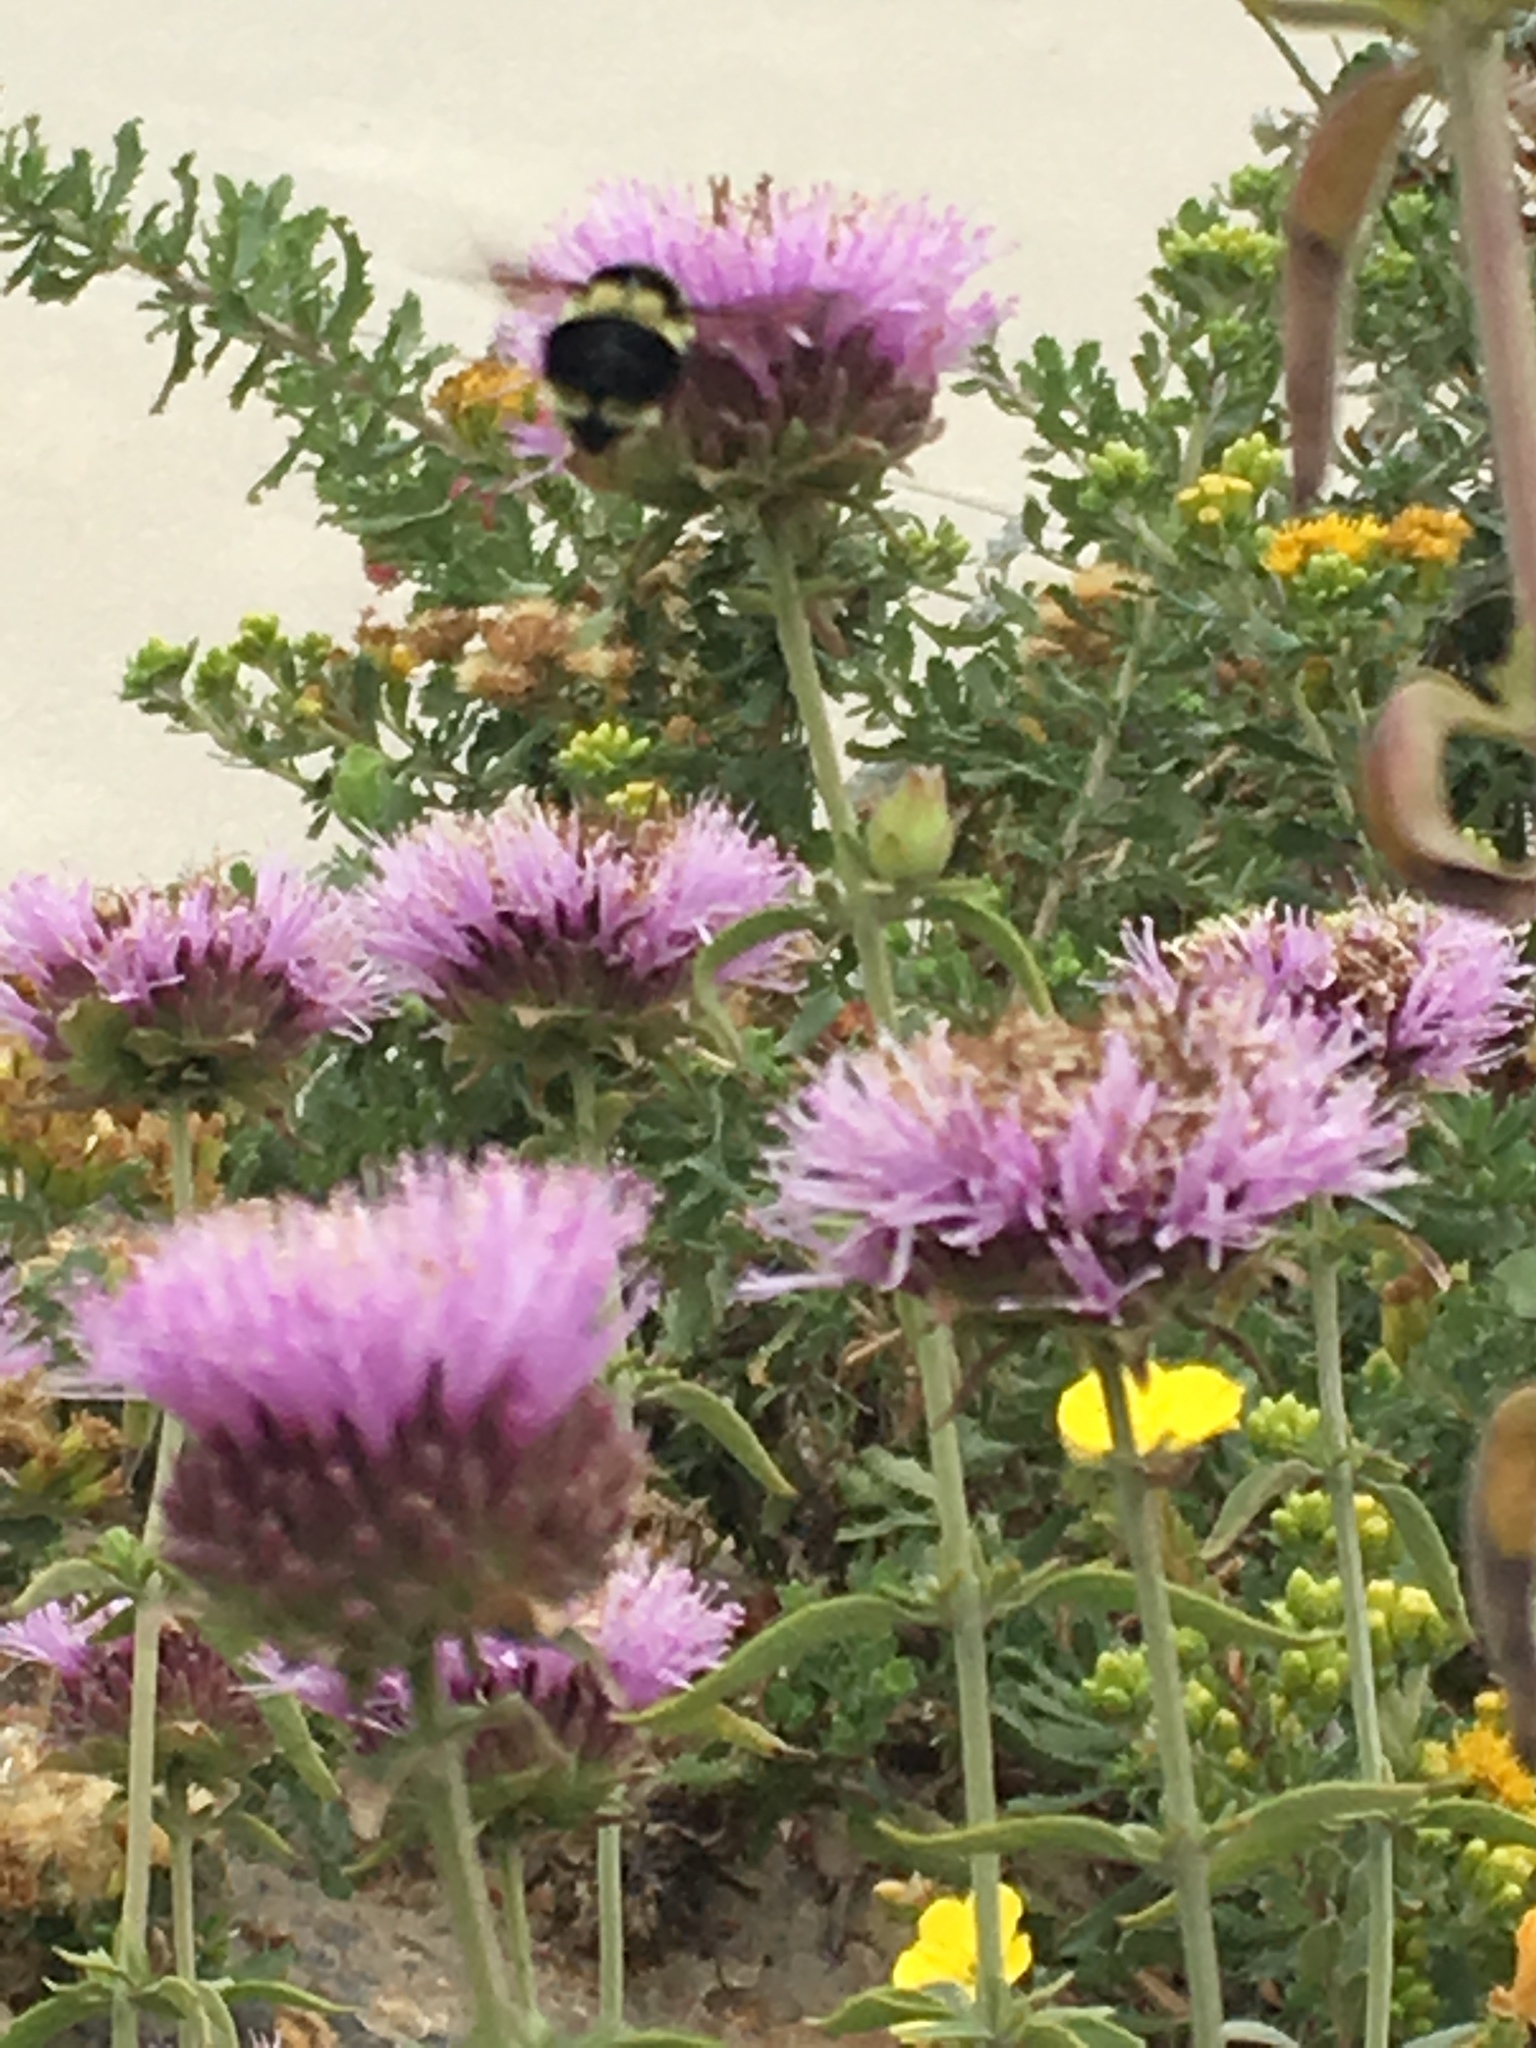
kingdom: Animalia
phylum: Arthropoda
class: Insecta
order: Hymenoptera
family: Apidae
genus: Bombus
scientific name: Bombus melanopygus
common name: Black tail bumble bee
